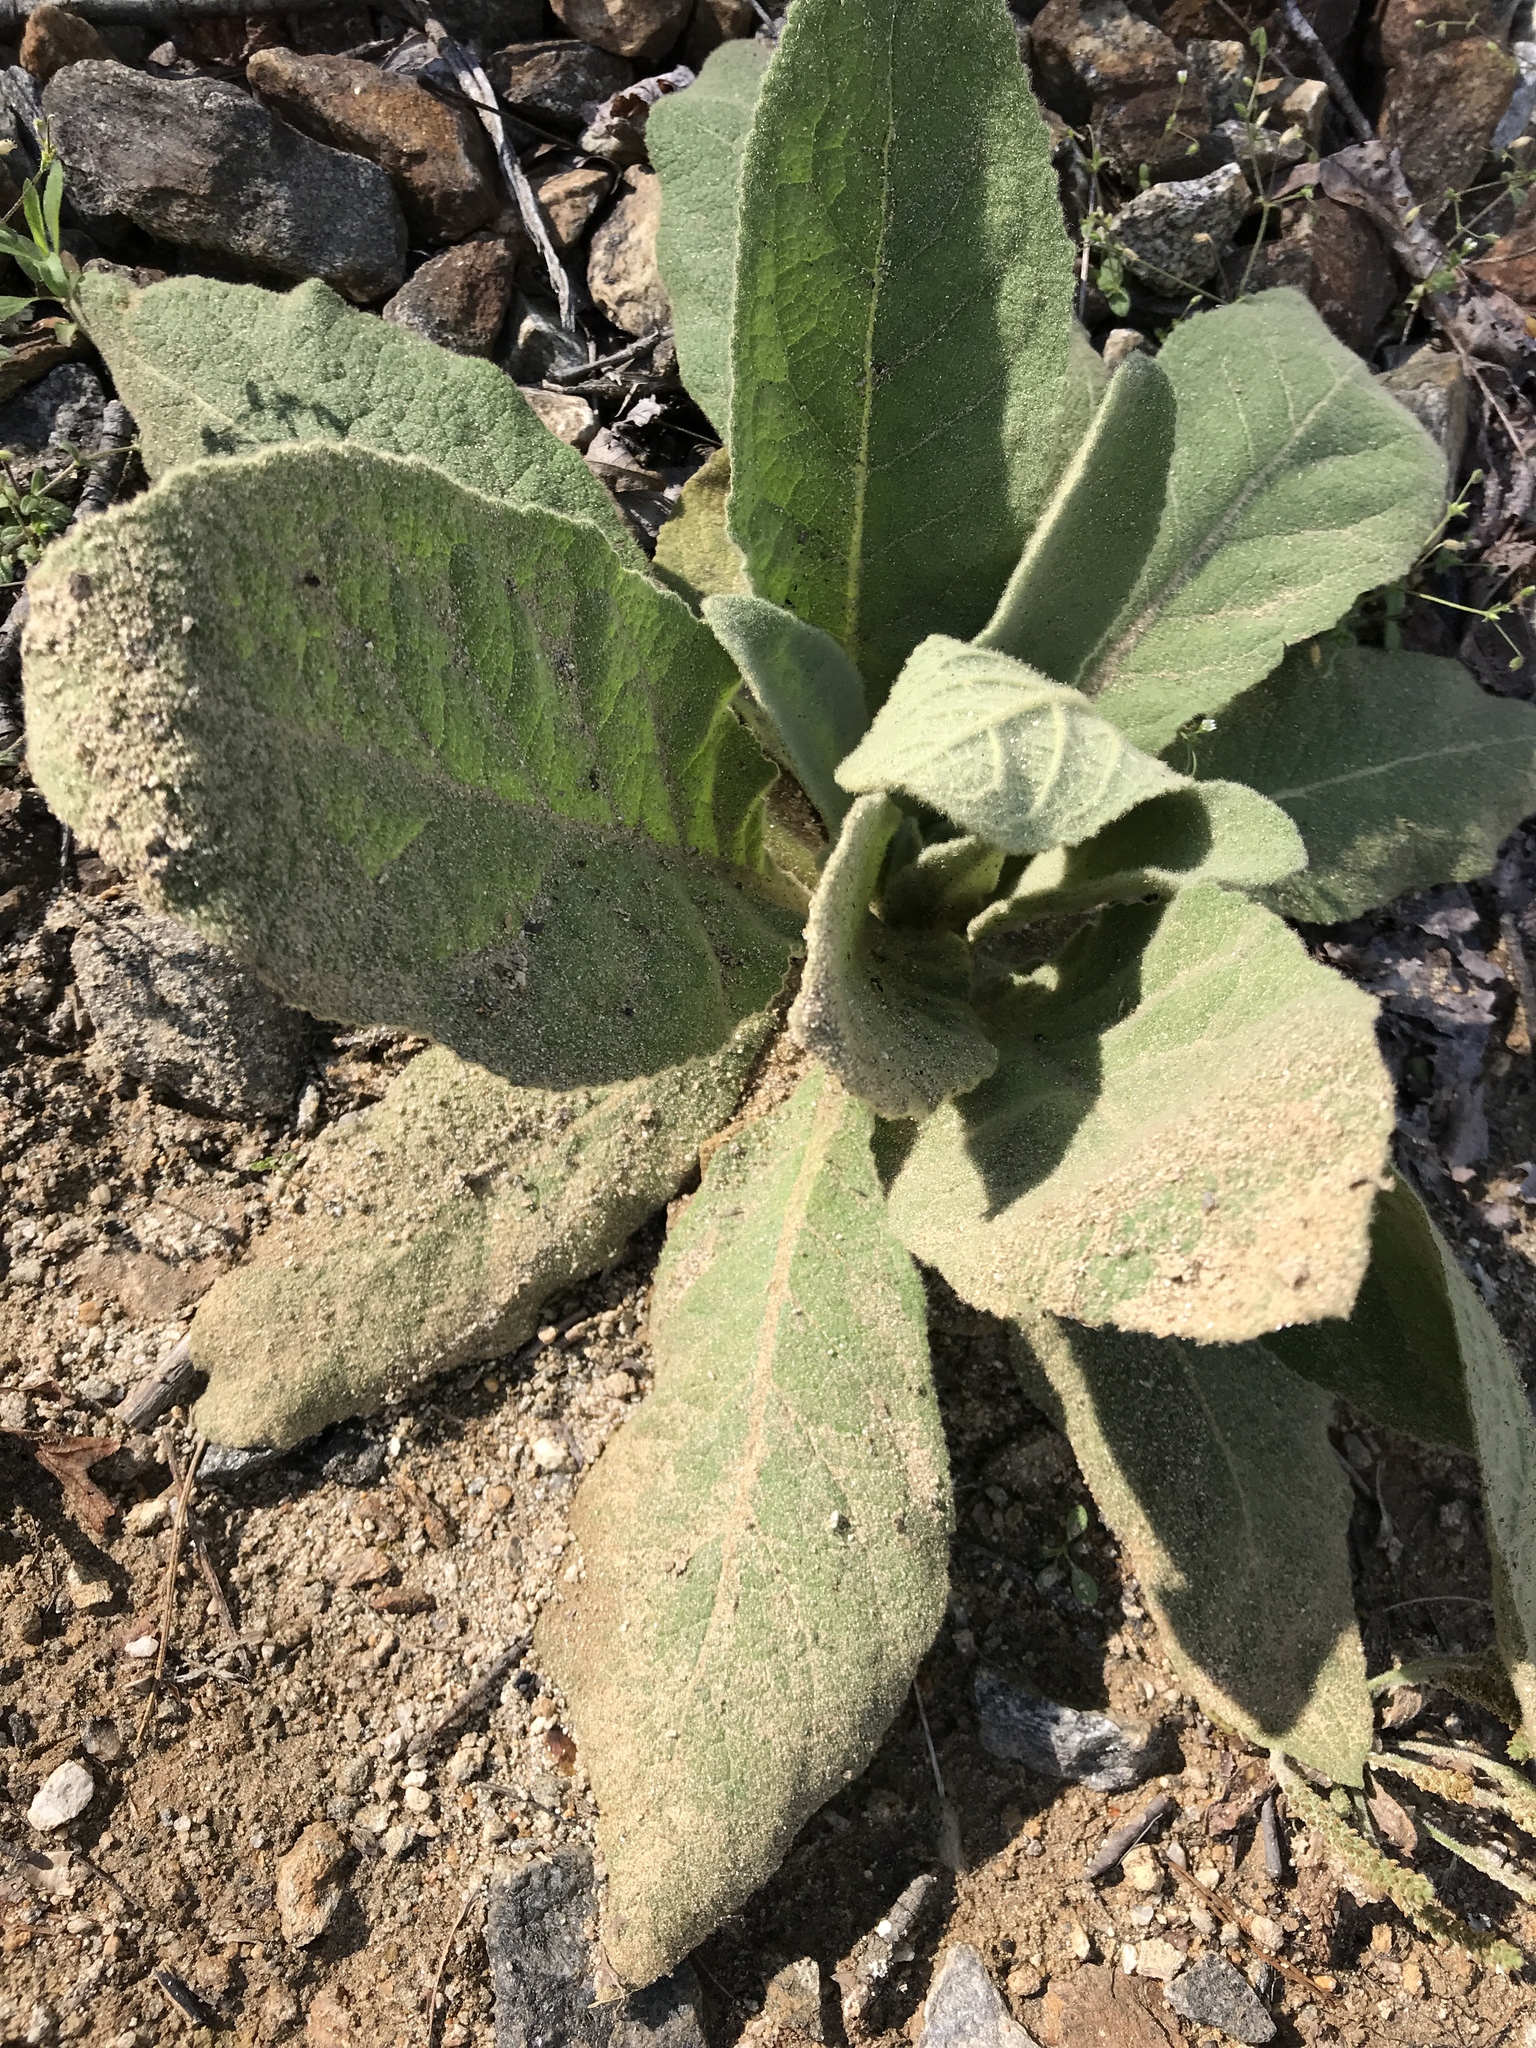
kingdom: Plantae
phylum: Tracheophyta
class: Magnoliopsida
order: Lamiales
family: Scrophulariaceae
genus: Verbascum
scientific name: Verbascum thapsus
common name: Common mullein
